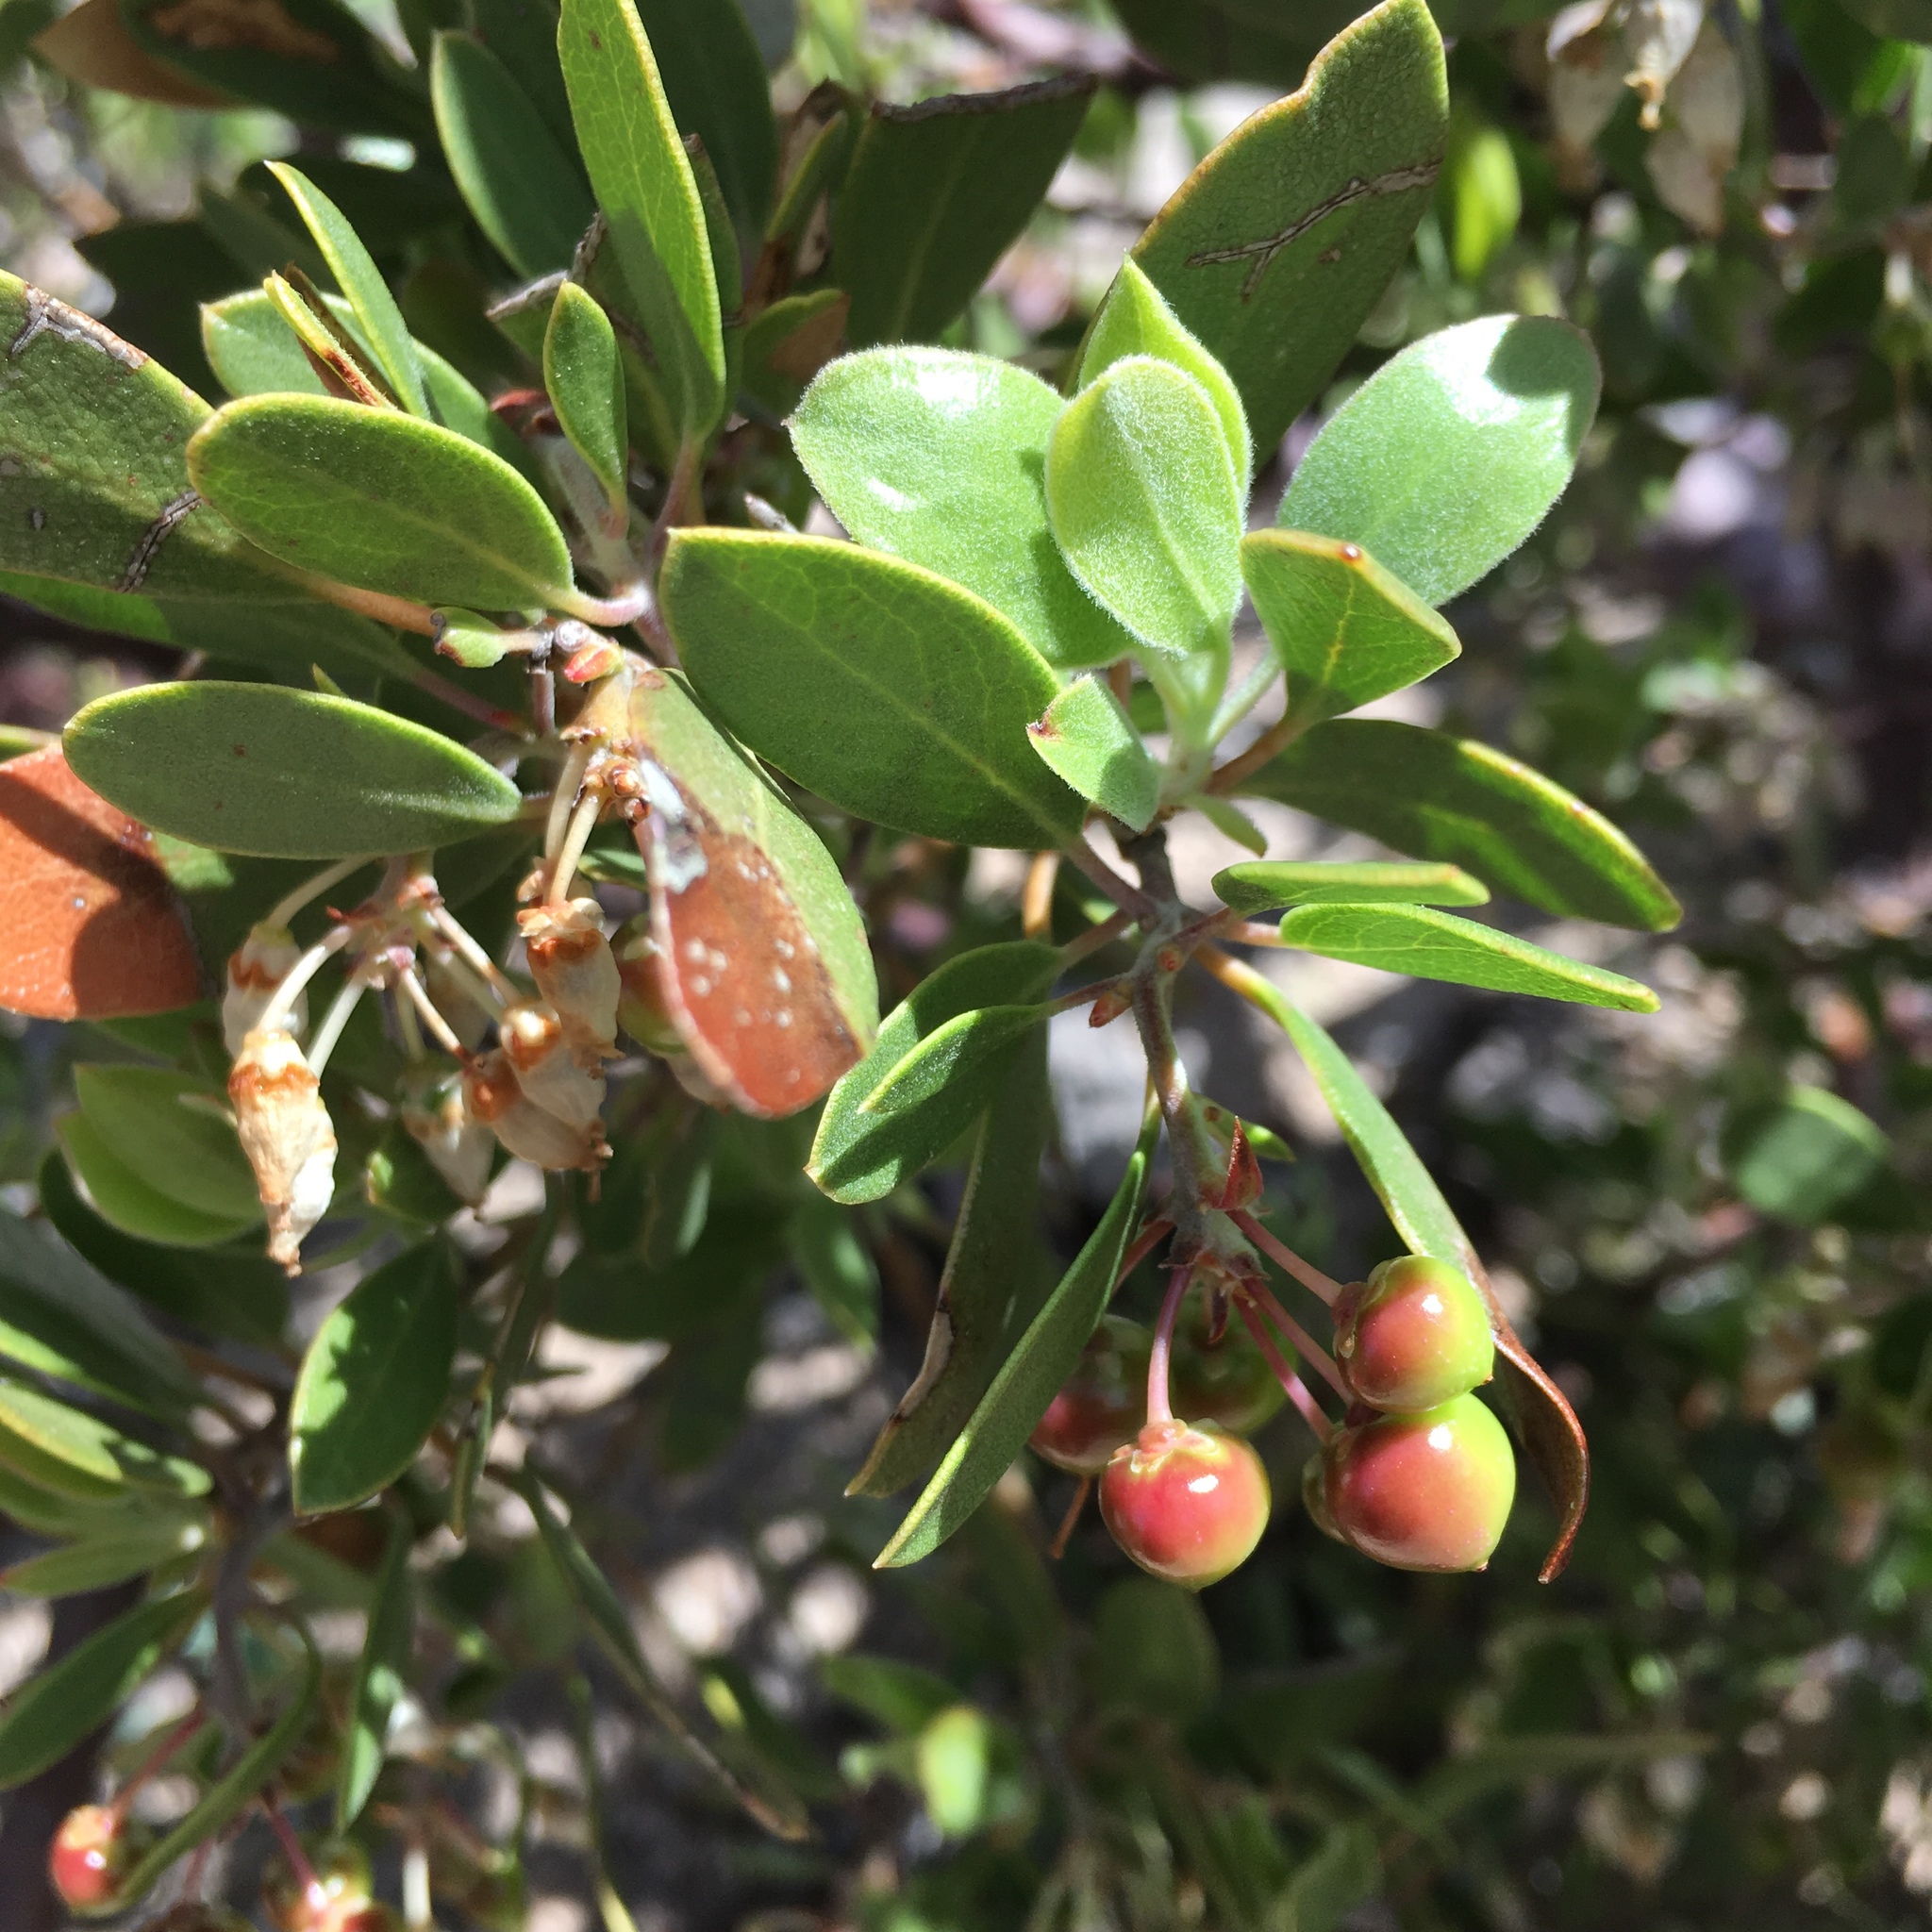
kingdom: Plantae
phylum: Tracheophyta
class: Magnoliopsida
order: Ericales
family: Ericaceae
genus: Arctostaphylos
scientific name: Arctostaphylos pungens
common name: Mexican manzanita
